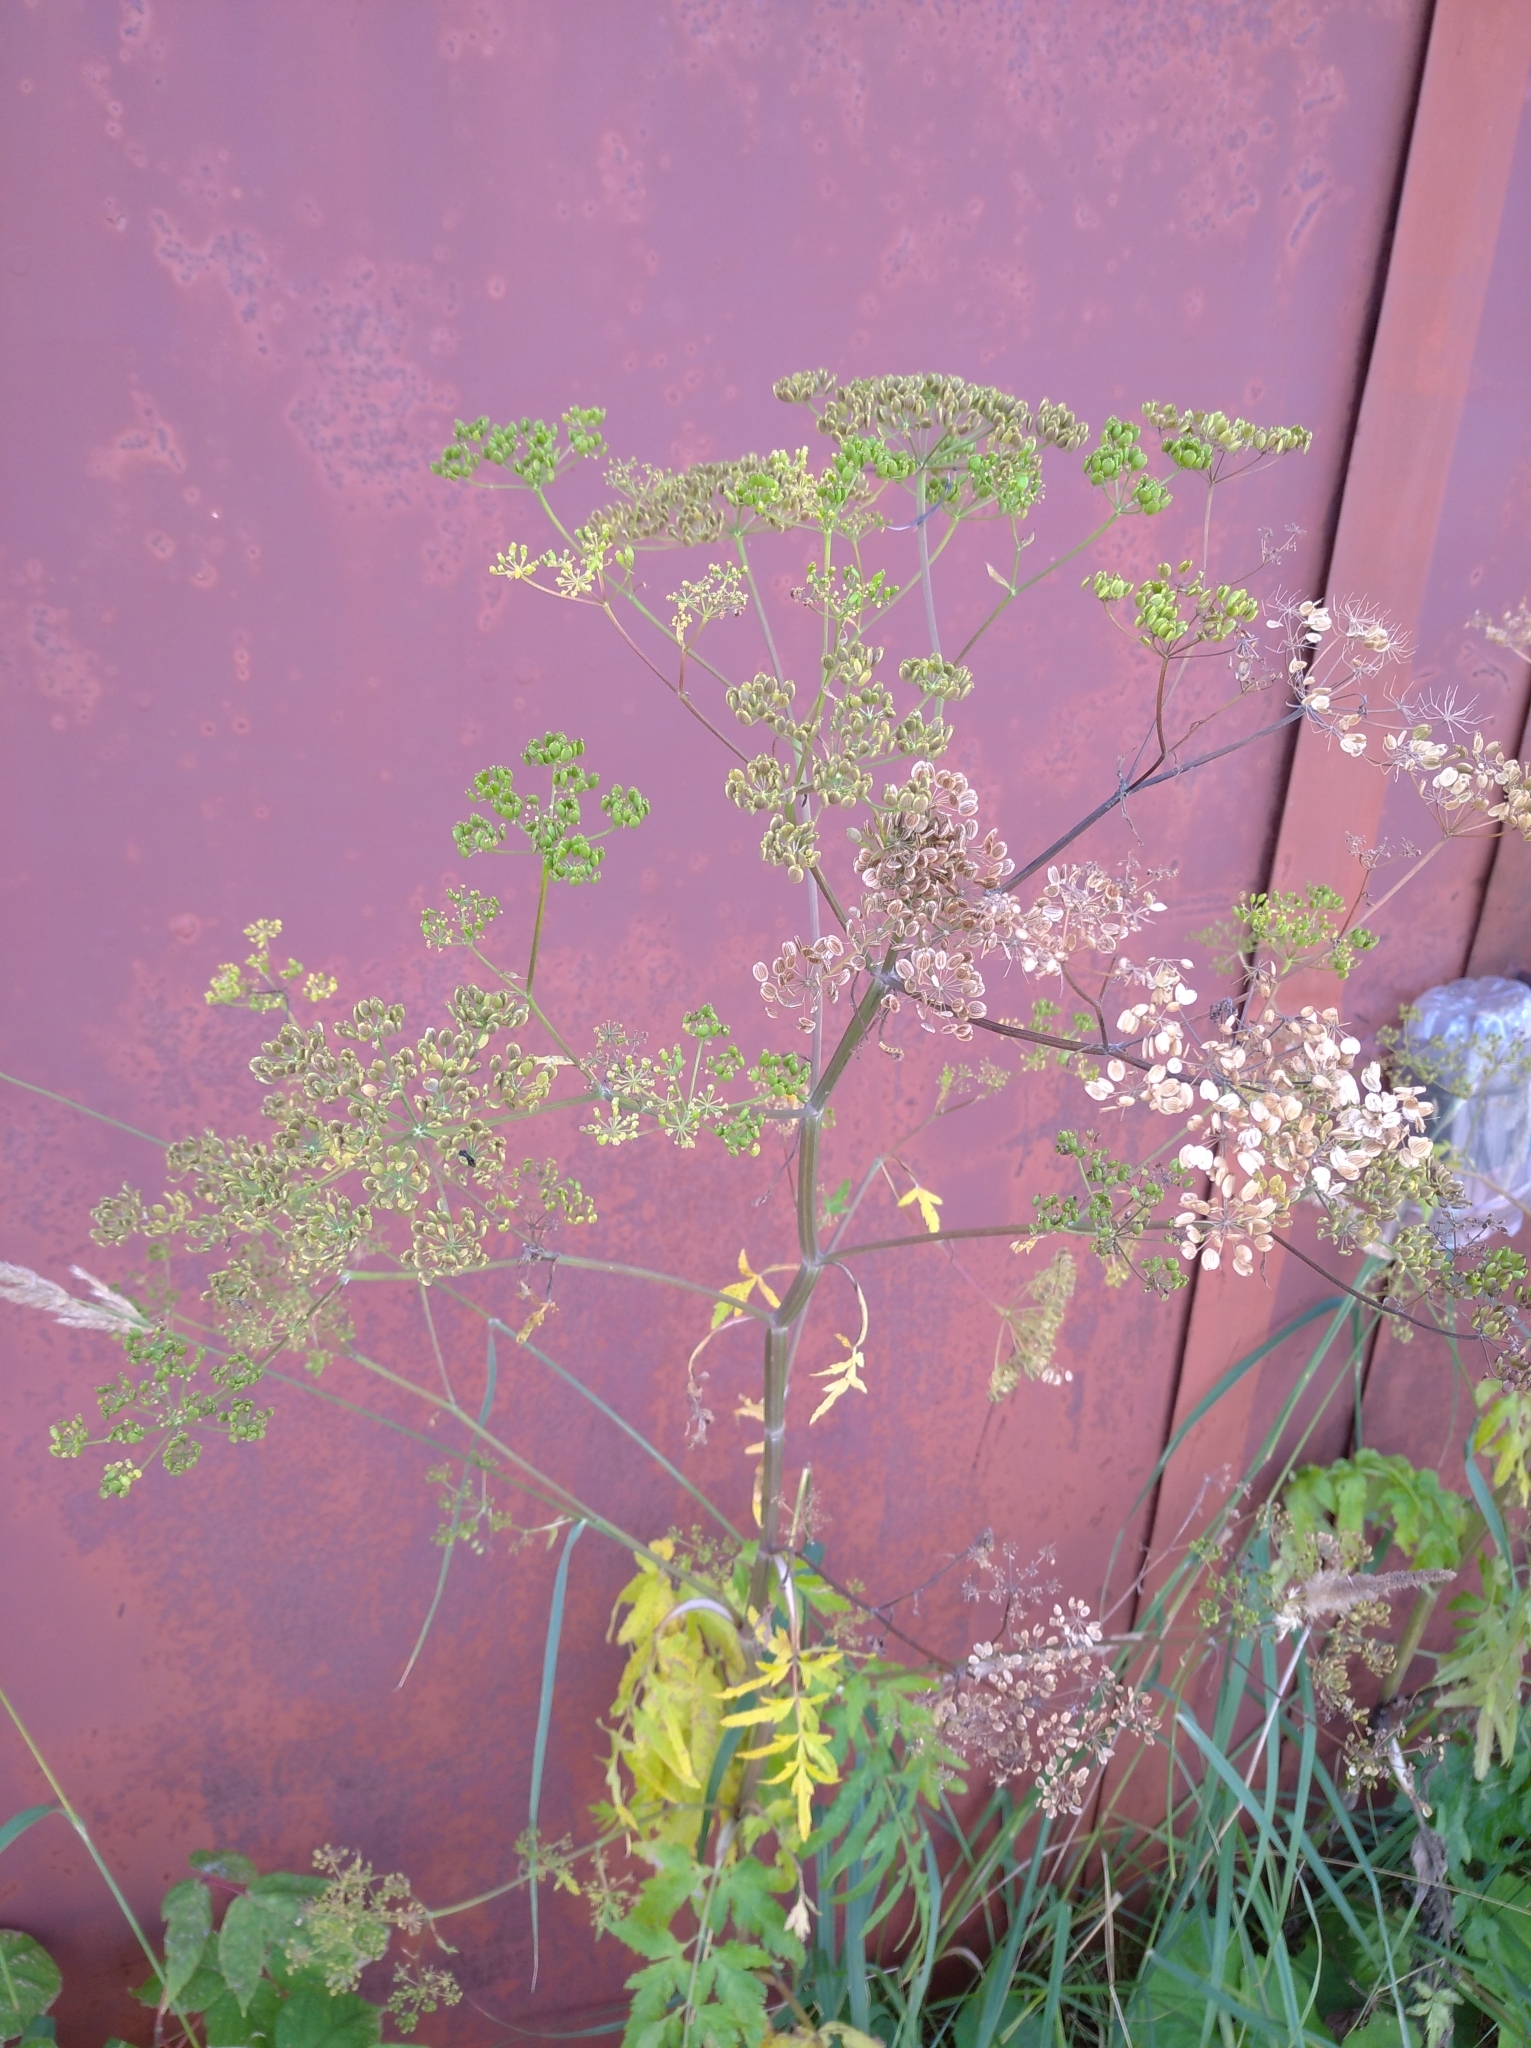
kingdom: Plantae
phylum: Tracheophyta
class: Magnoliopsida
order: Apiales
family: Apiaceae
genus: Pastinaca
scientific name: Pastinaca sativa
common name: Wild parsnip
